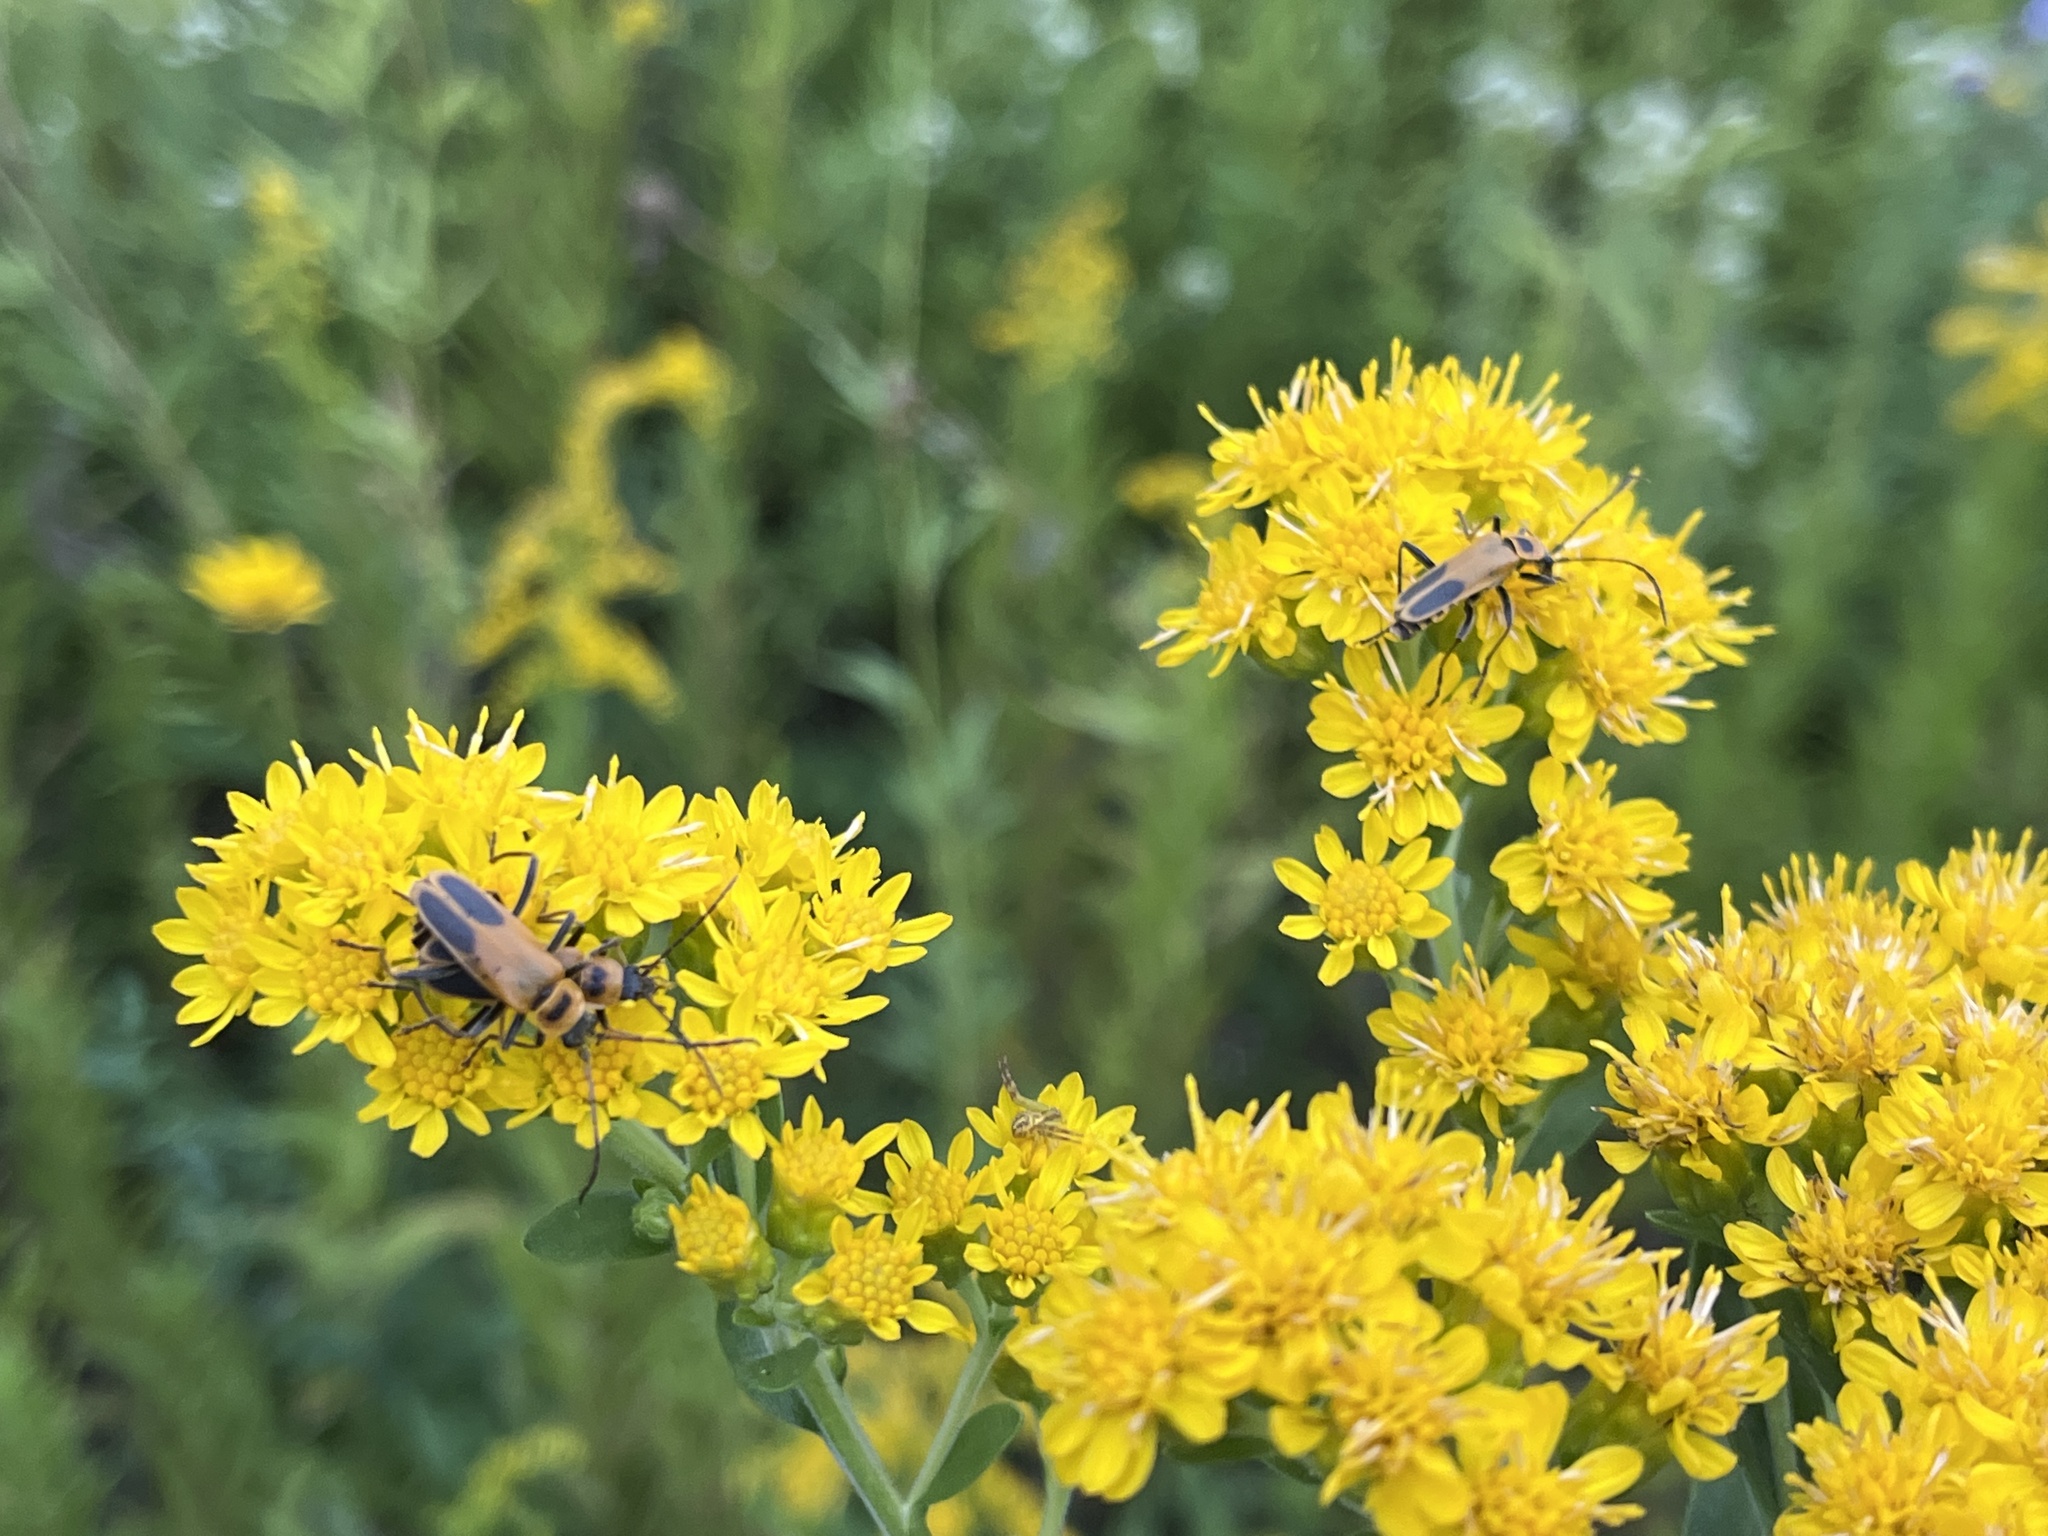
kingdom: Animalia
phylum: Arthropoda
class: Insecta
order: Coleoptera
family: Cantharidae
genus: Chauliognathus
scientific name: Chauliognathus pensylvanicus
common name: Goldenrod soldier beetle
